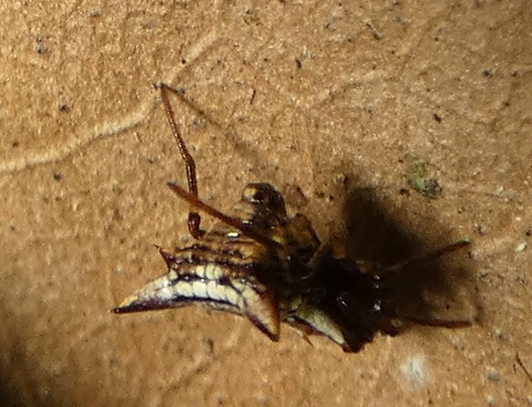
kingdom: Animalia
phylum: Arthropoda
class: Arachnida
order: Araneae
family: Araneidae
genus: Micrathena
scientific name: Micrathena evansi
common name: Orb weavers
